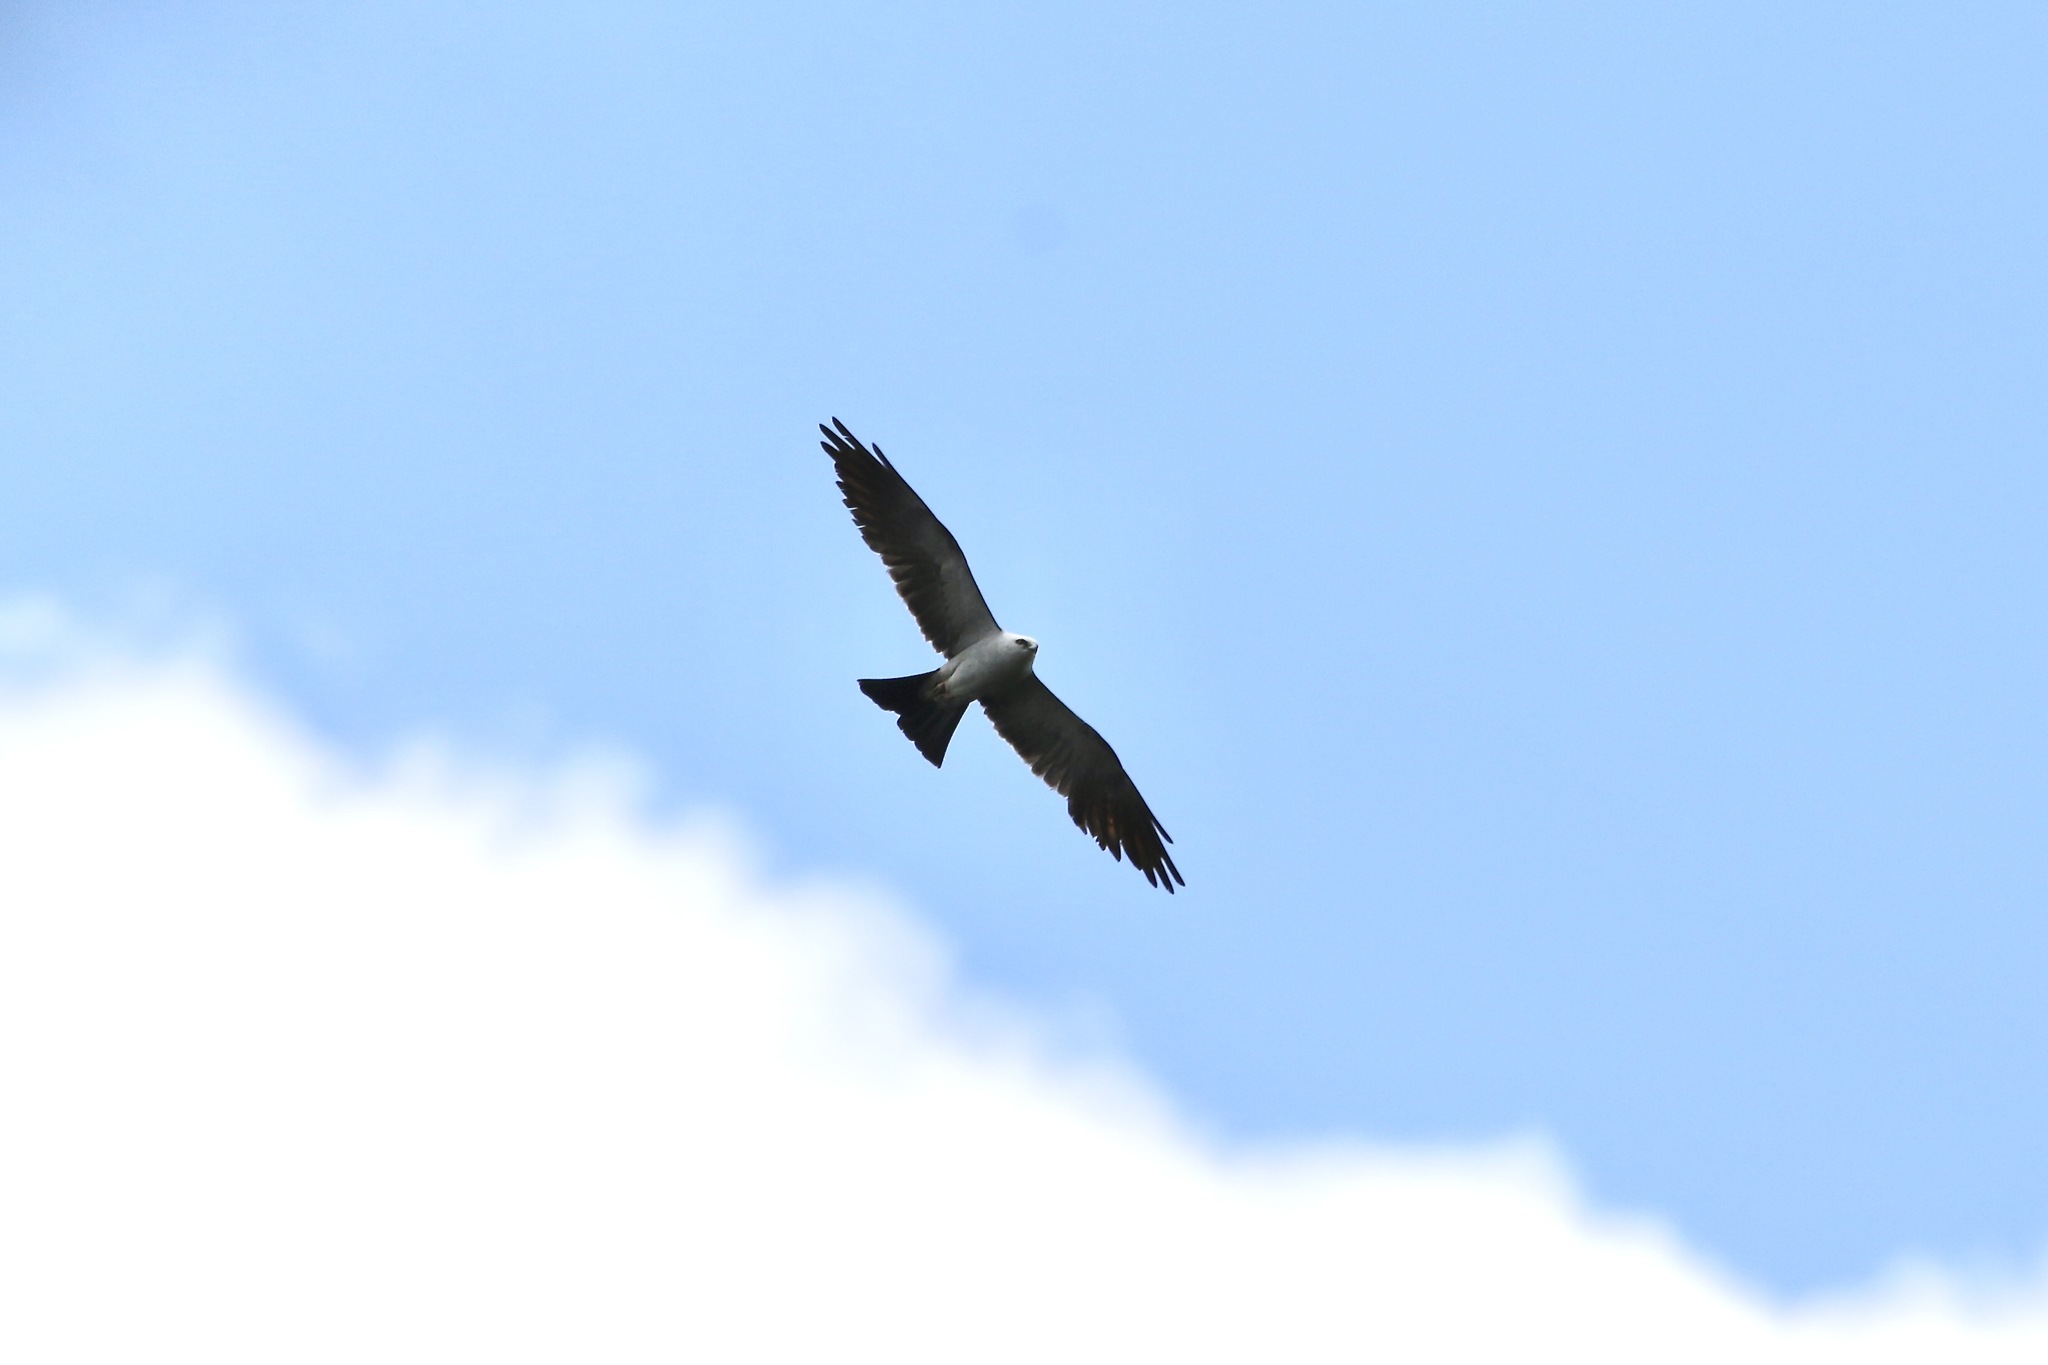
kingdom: Animalia
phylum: Chordata
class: Aves
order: Accipitriformes
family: Accipitridae
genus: Ictinia
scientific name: Ictinia mississippiensis
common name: Mississippi kite
